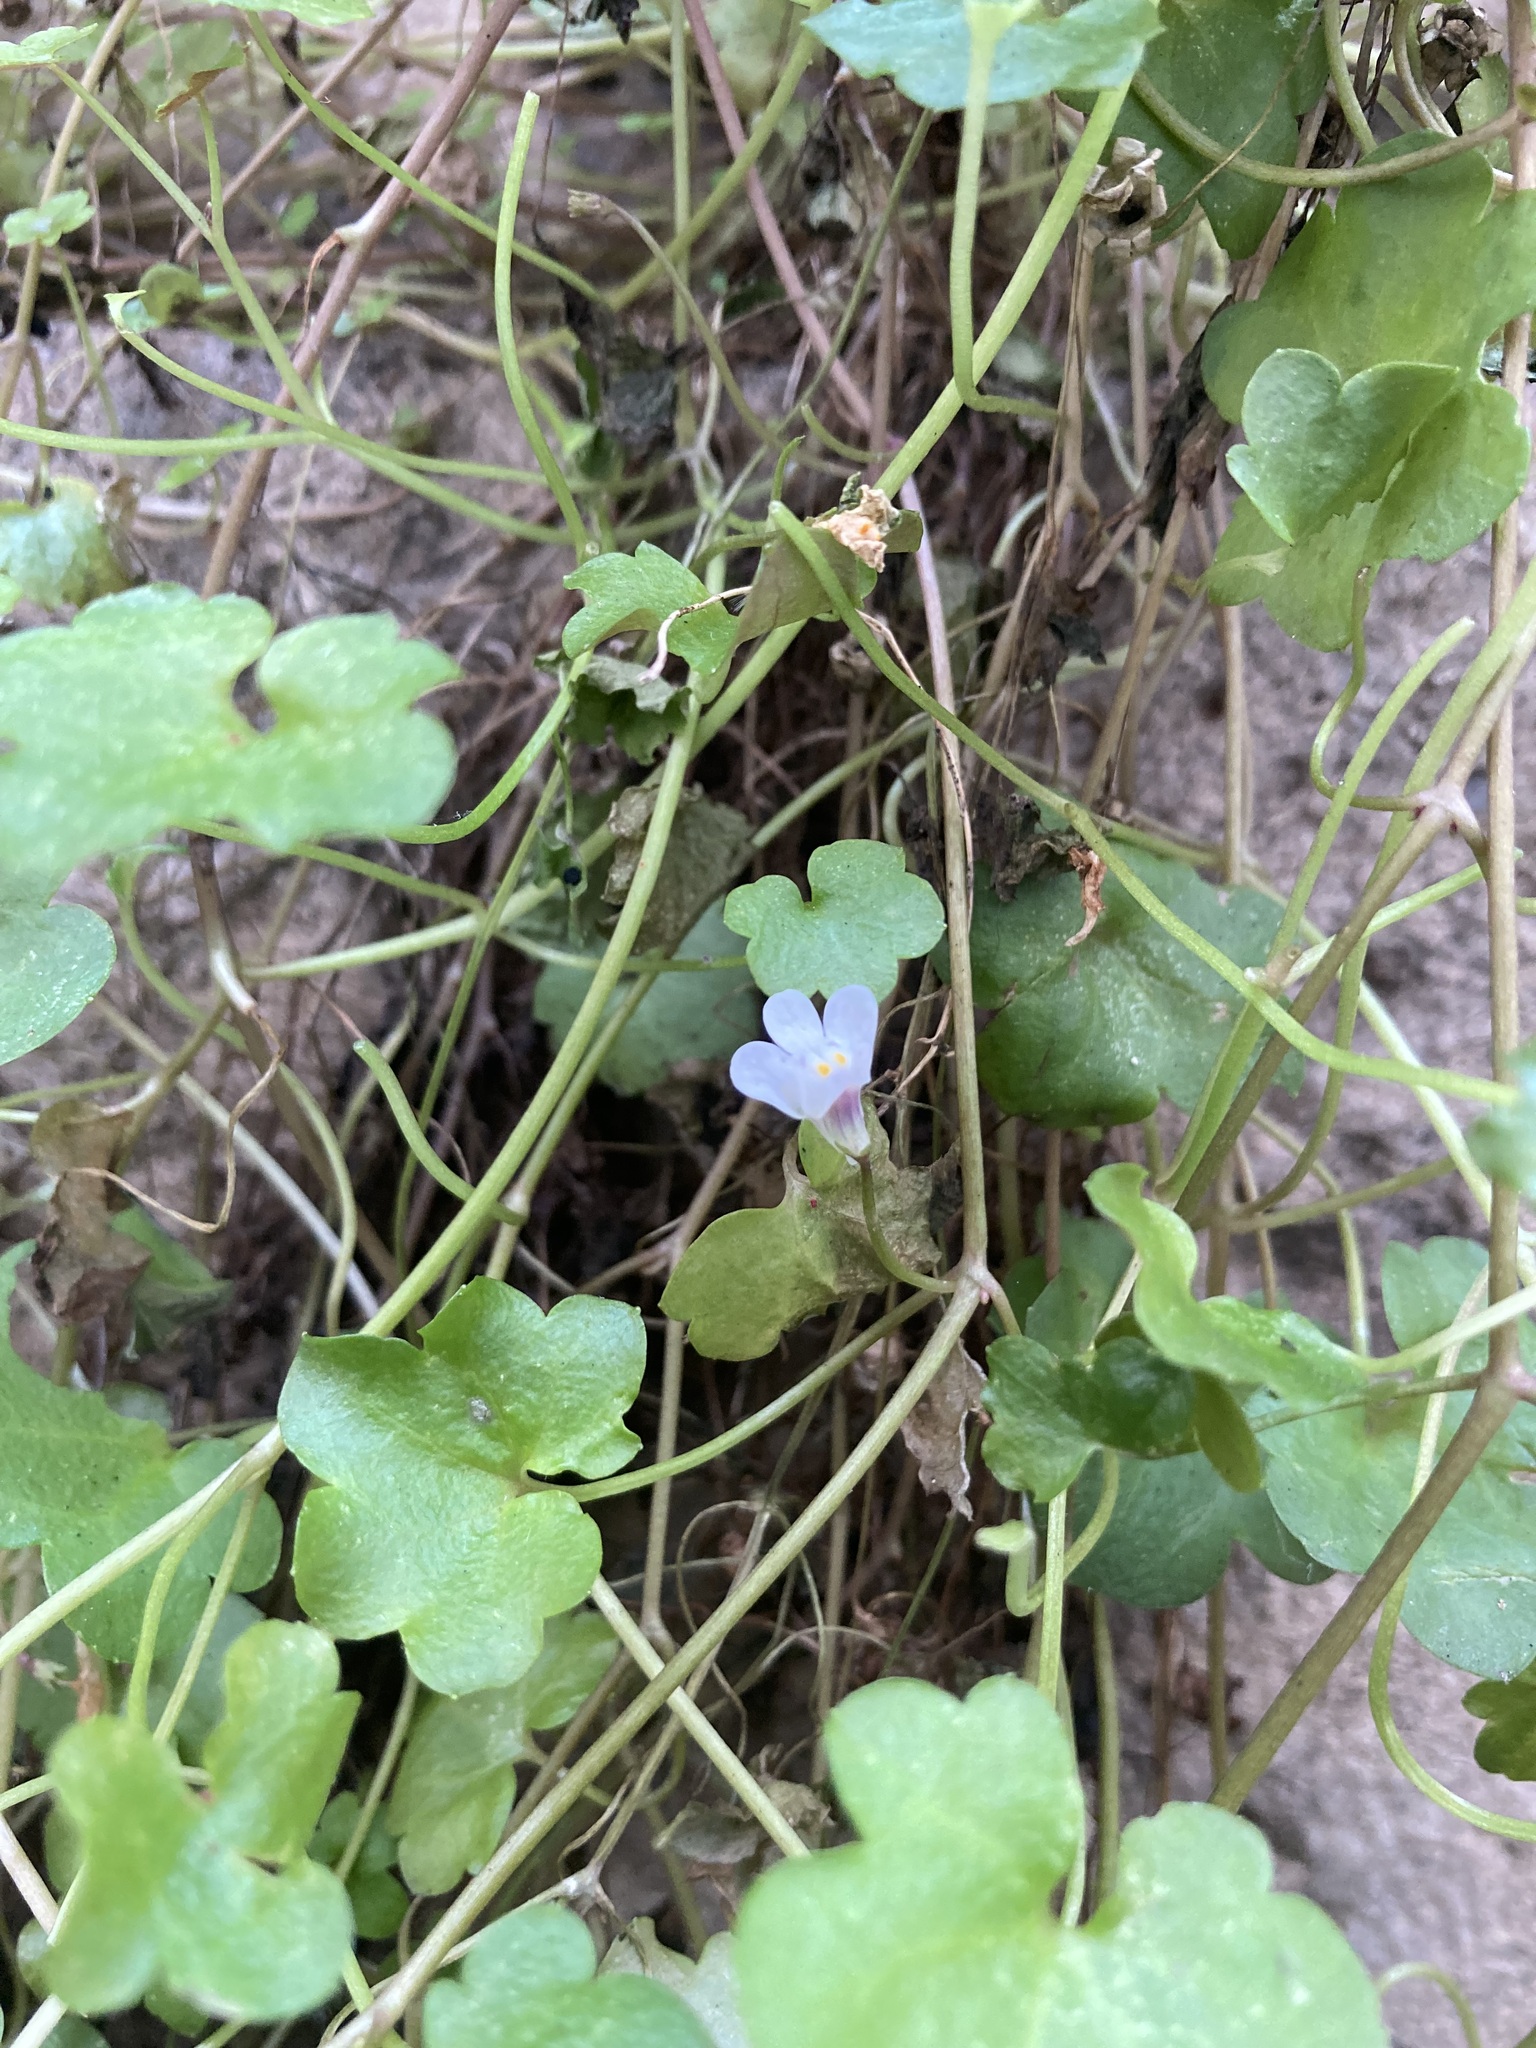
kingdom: Plantae
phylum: Tracheophyta
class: Magnoliopsida
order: Lamiales
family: Plantaginaceae
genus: Cymbalaria
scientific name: Cymbalaria muralis
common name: Ivy-leaved toadflax
